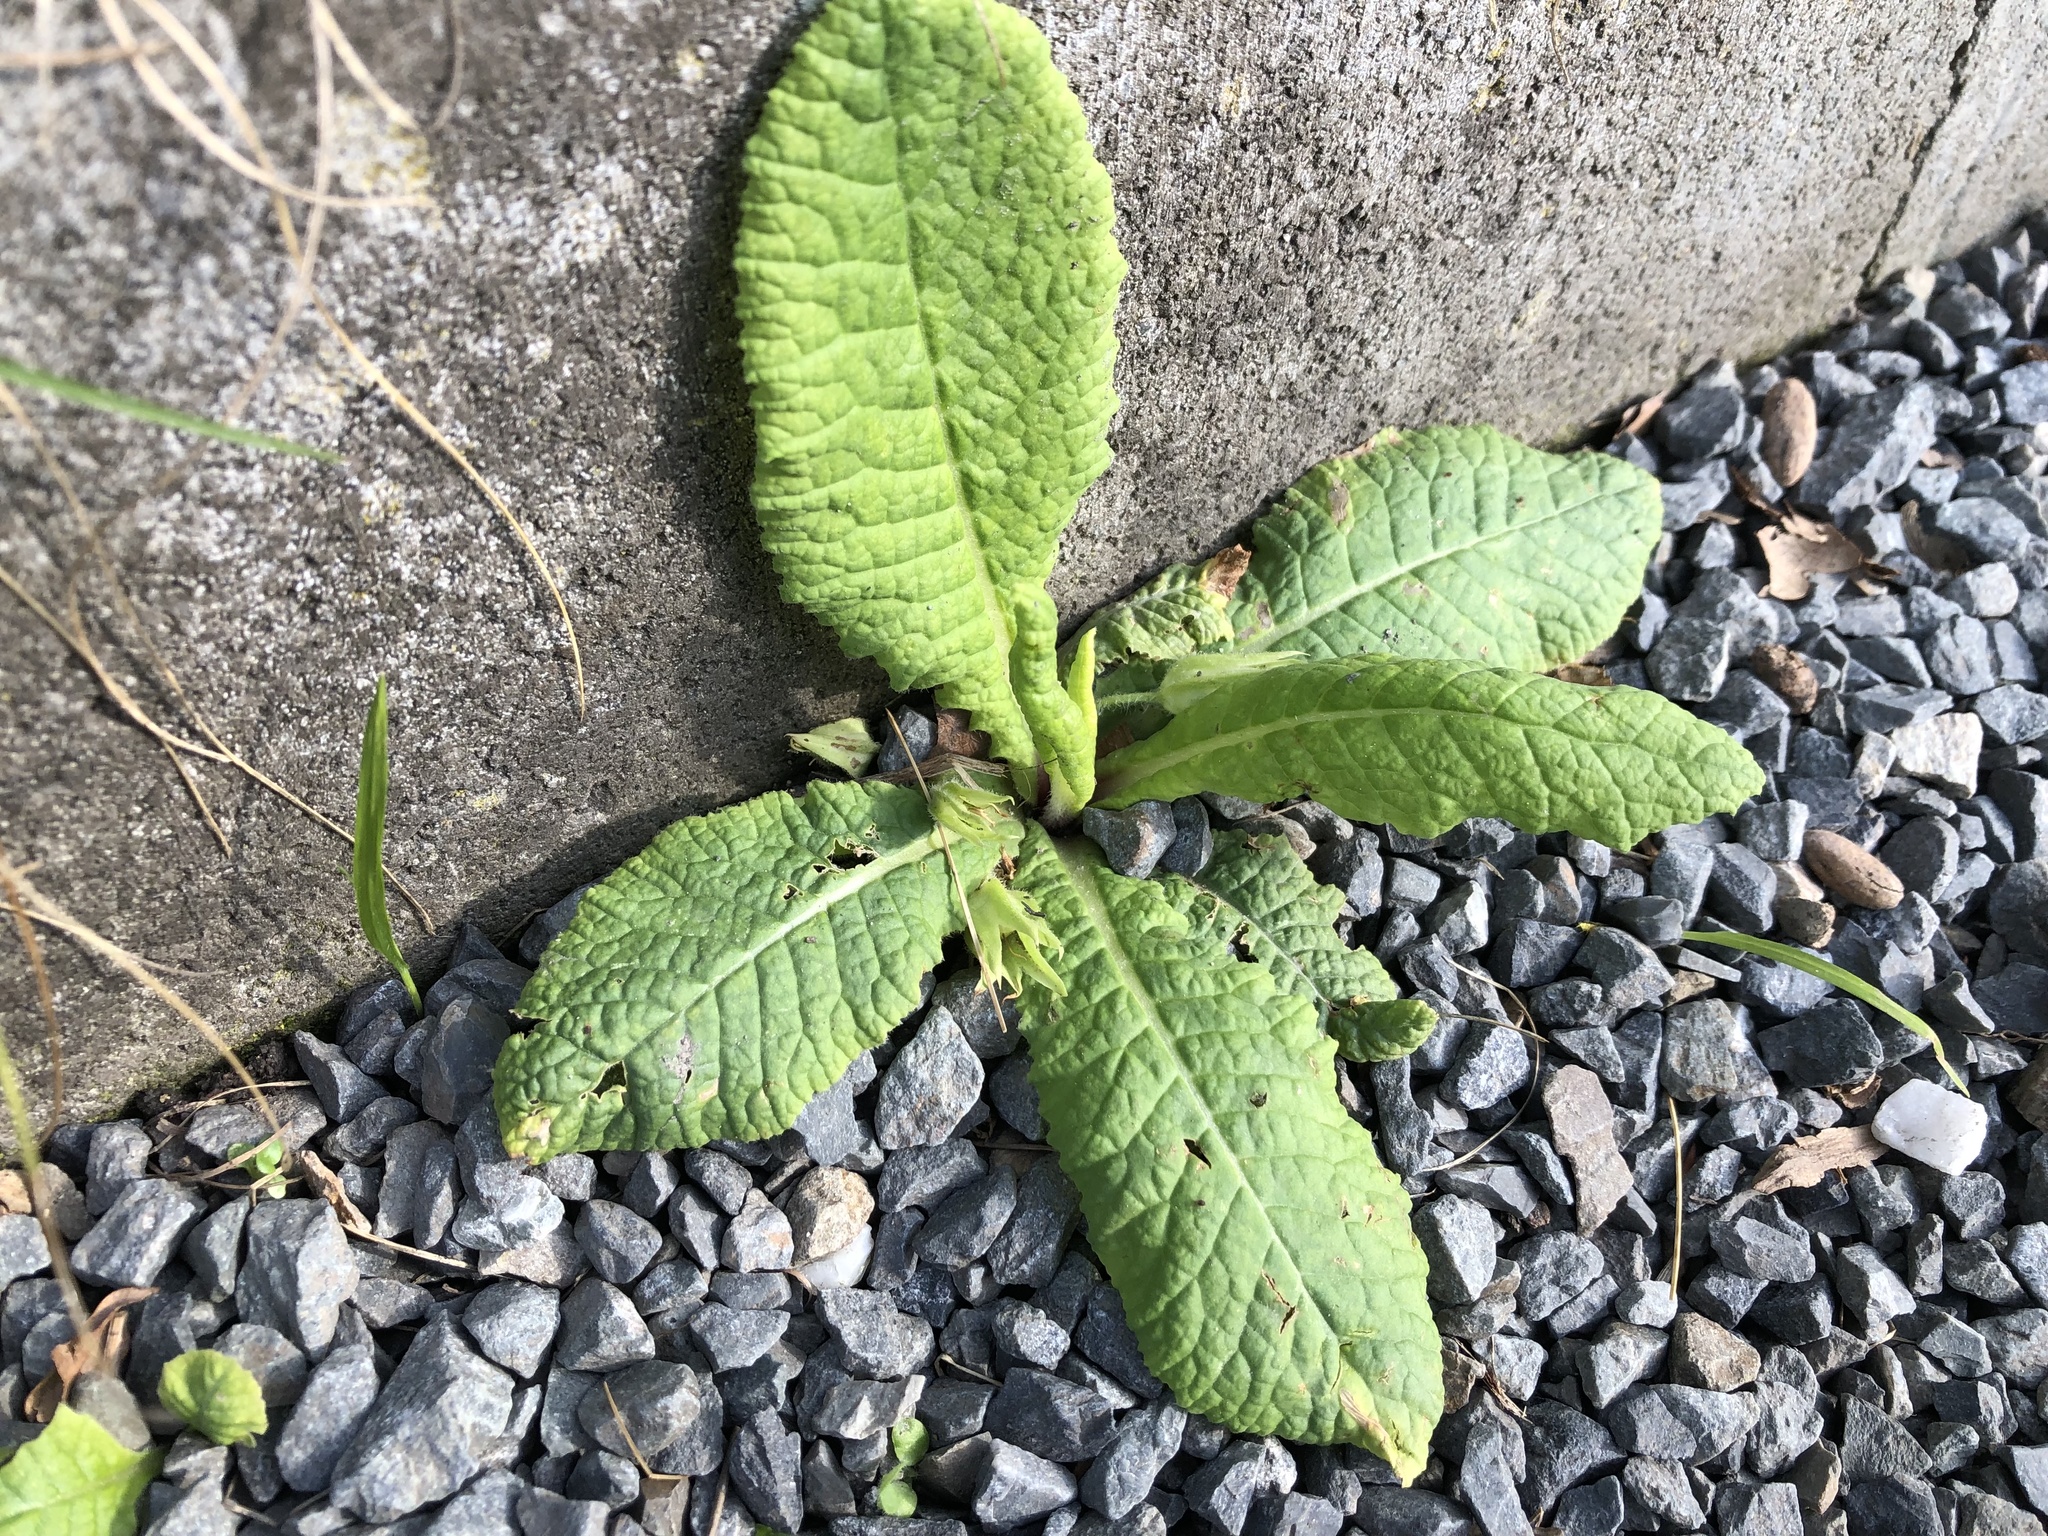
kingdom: Plantae
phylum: Tracheophyta
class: Magnoliopsida
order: Ericales
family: Primulaceae
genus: Primula
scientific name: Primula vulgaris
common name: Primrose
